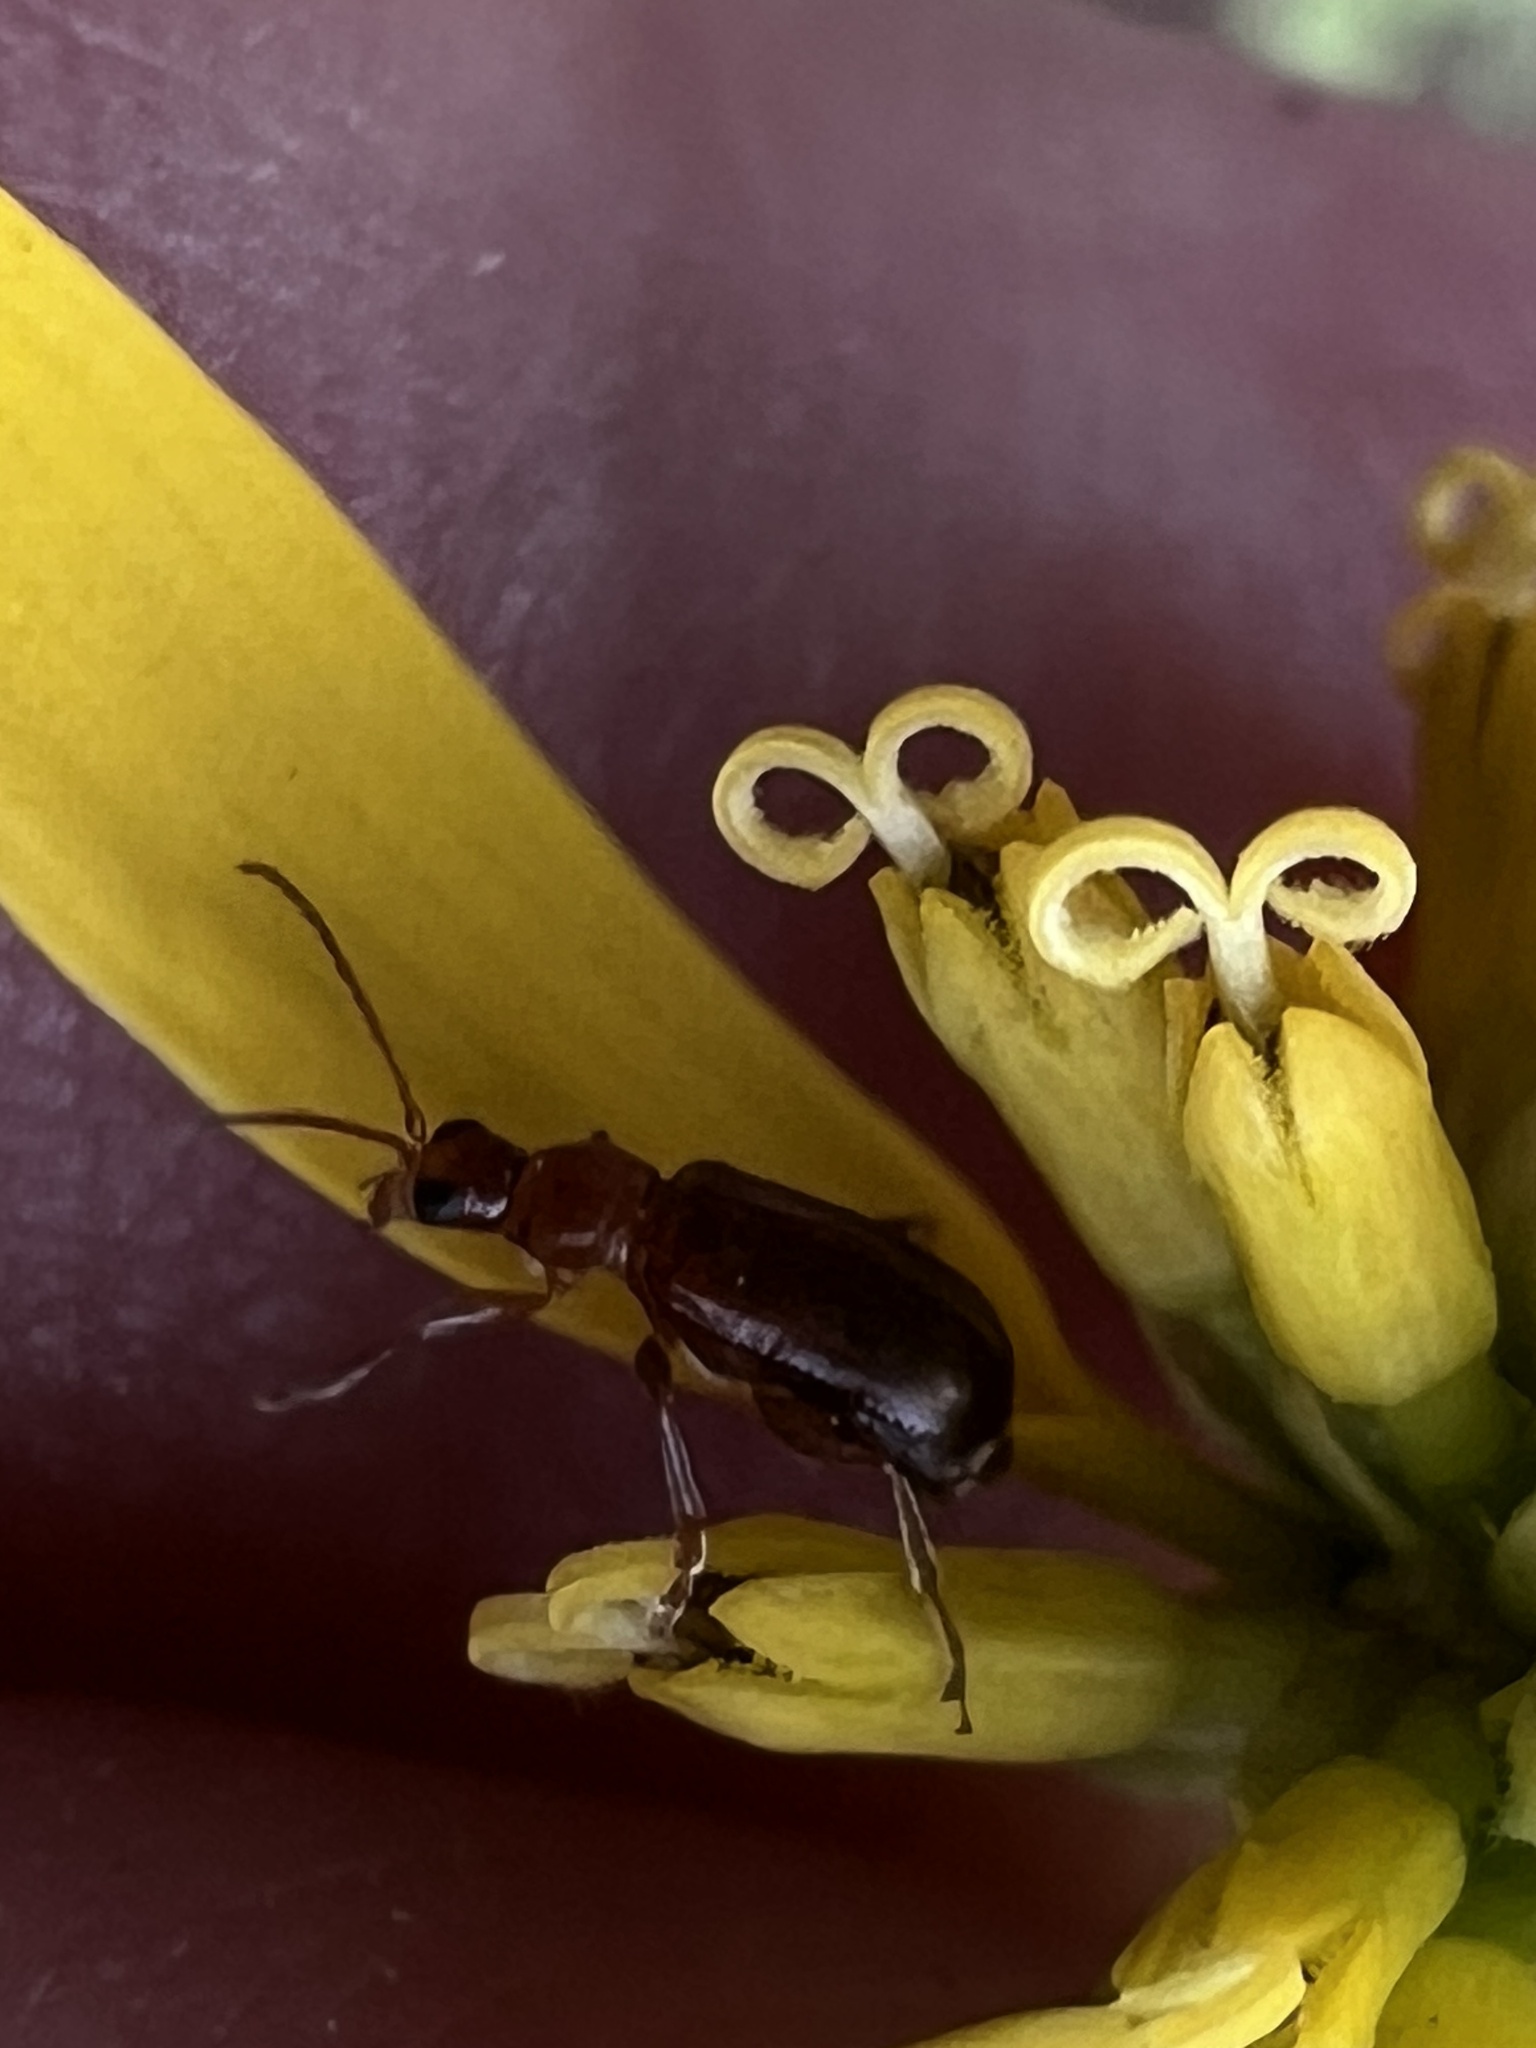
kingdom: Animalia
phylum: Arthropoda
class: Insecta
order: Coleoptera
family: Chrysomelidae
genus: Luperaltica
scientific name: Luperaltica senilis
